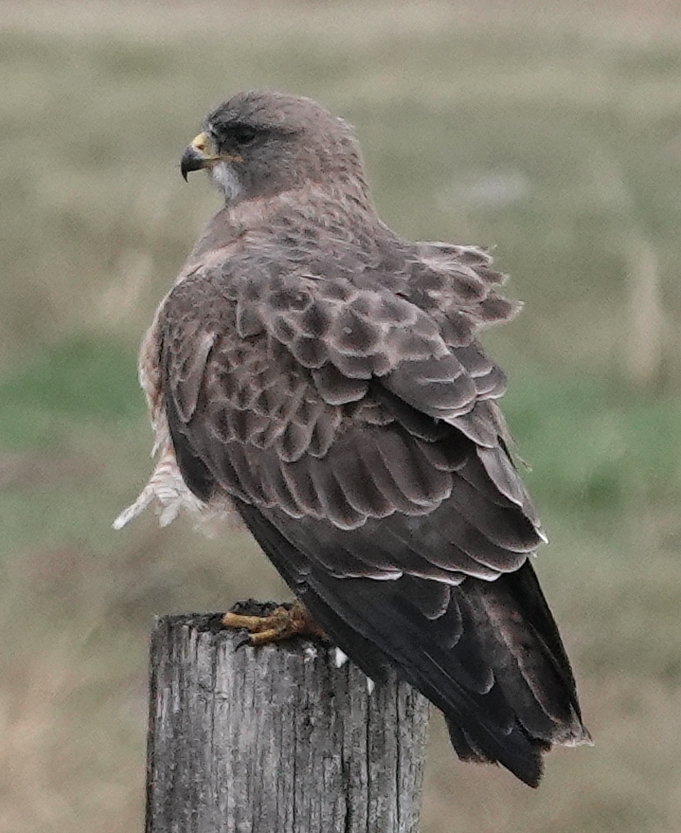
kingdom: Animalia
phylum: Chordata
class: Aves
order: Accipitriformes
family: Accipitridae
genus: Buteo
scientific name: Buteo swainsoni
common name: Swainson's hawk
